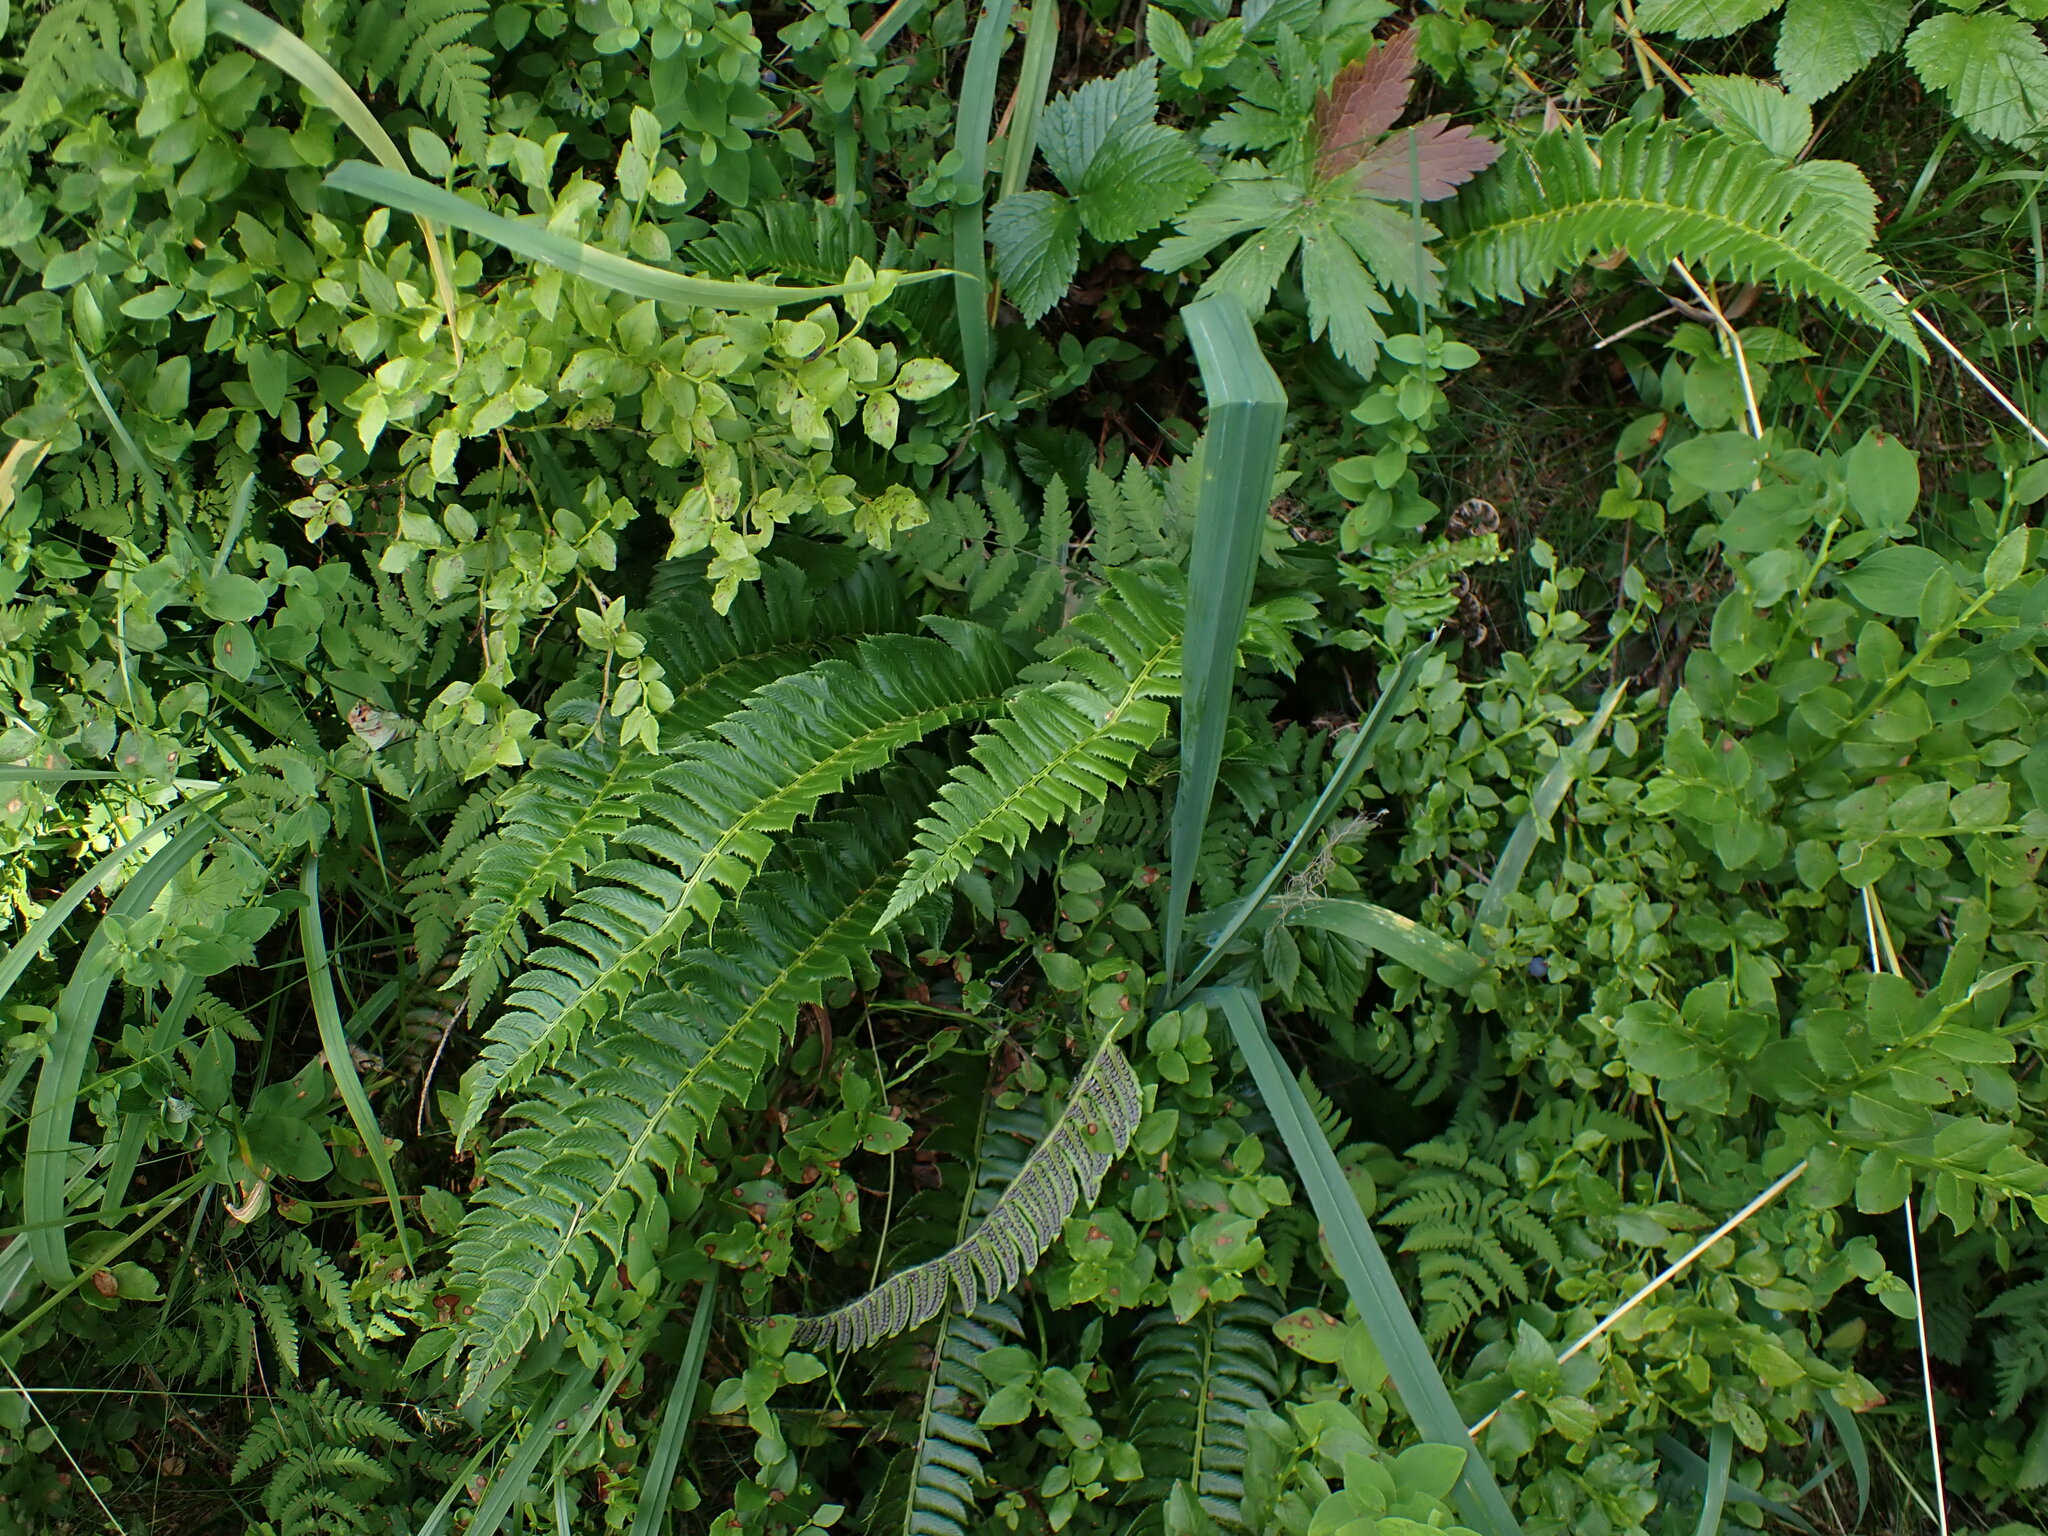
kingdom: Plantae
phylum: Tracheophyta
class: Polypodiopsida
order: Polypodiales
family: Dryopteridaceae
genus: Polystichum
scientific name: Polystichum lonchitis
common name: Holly fern
